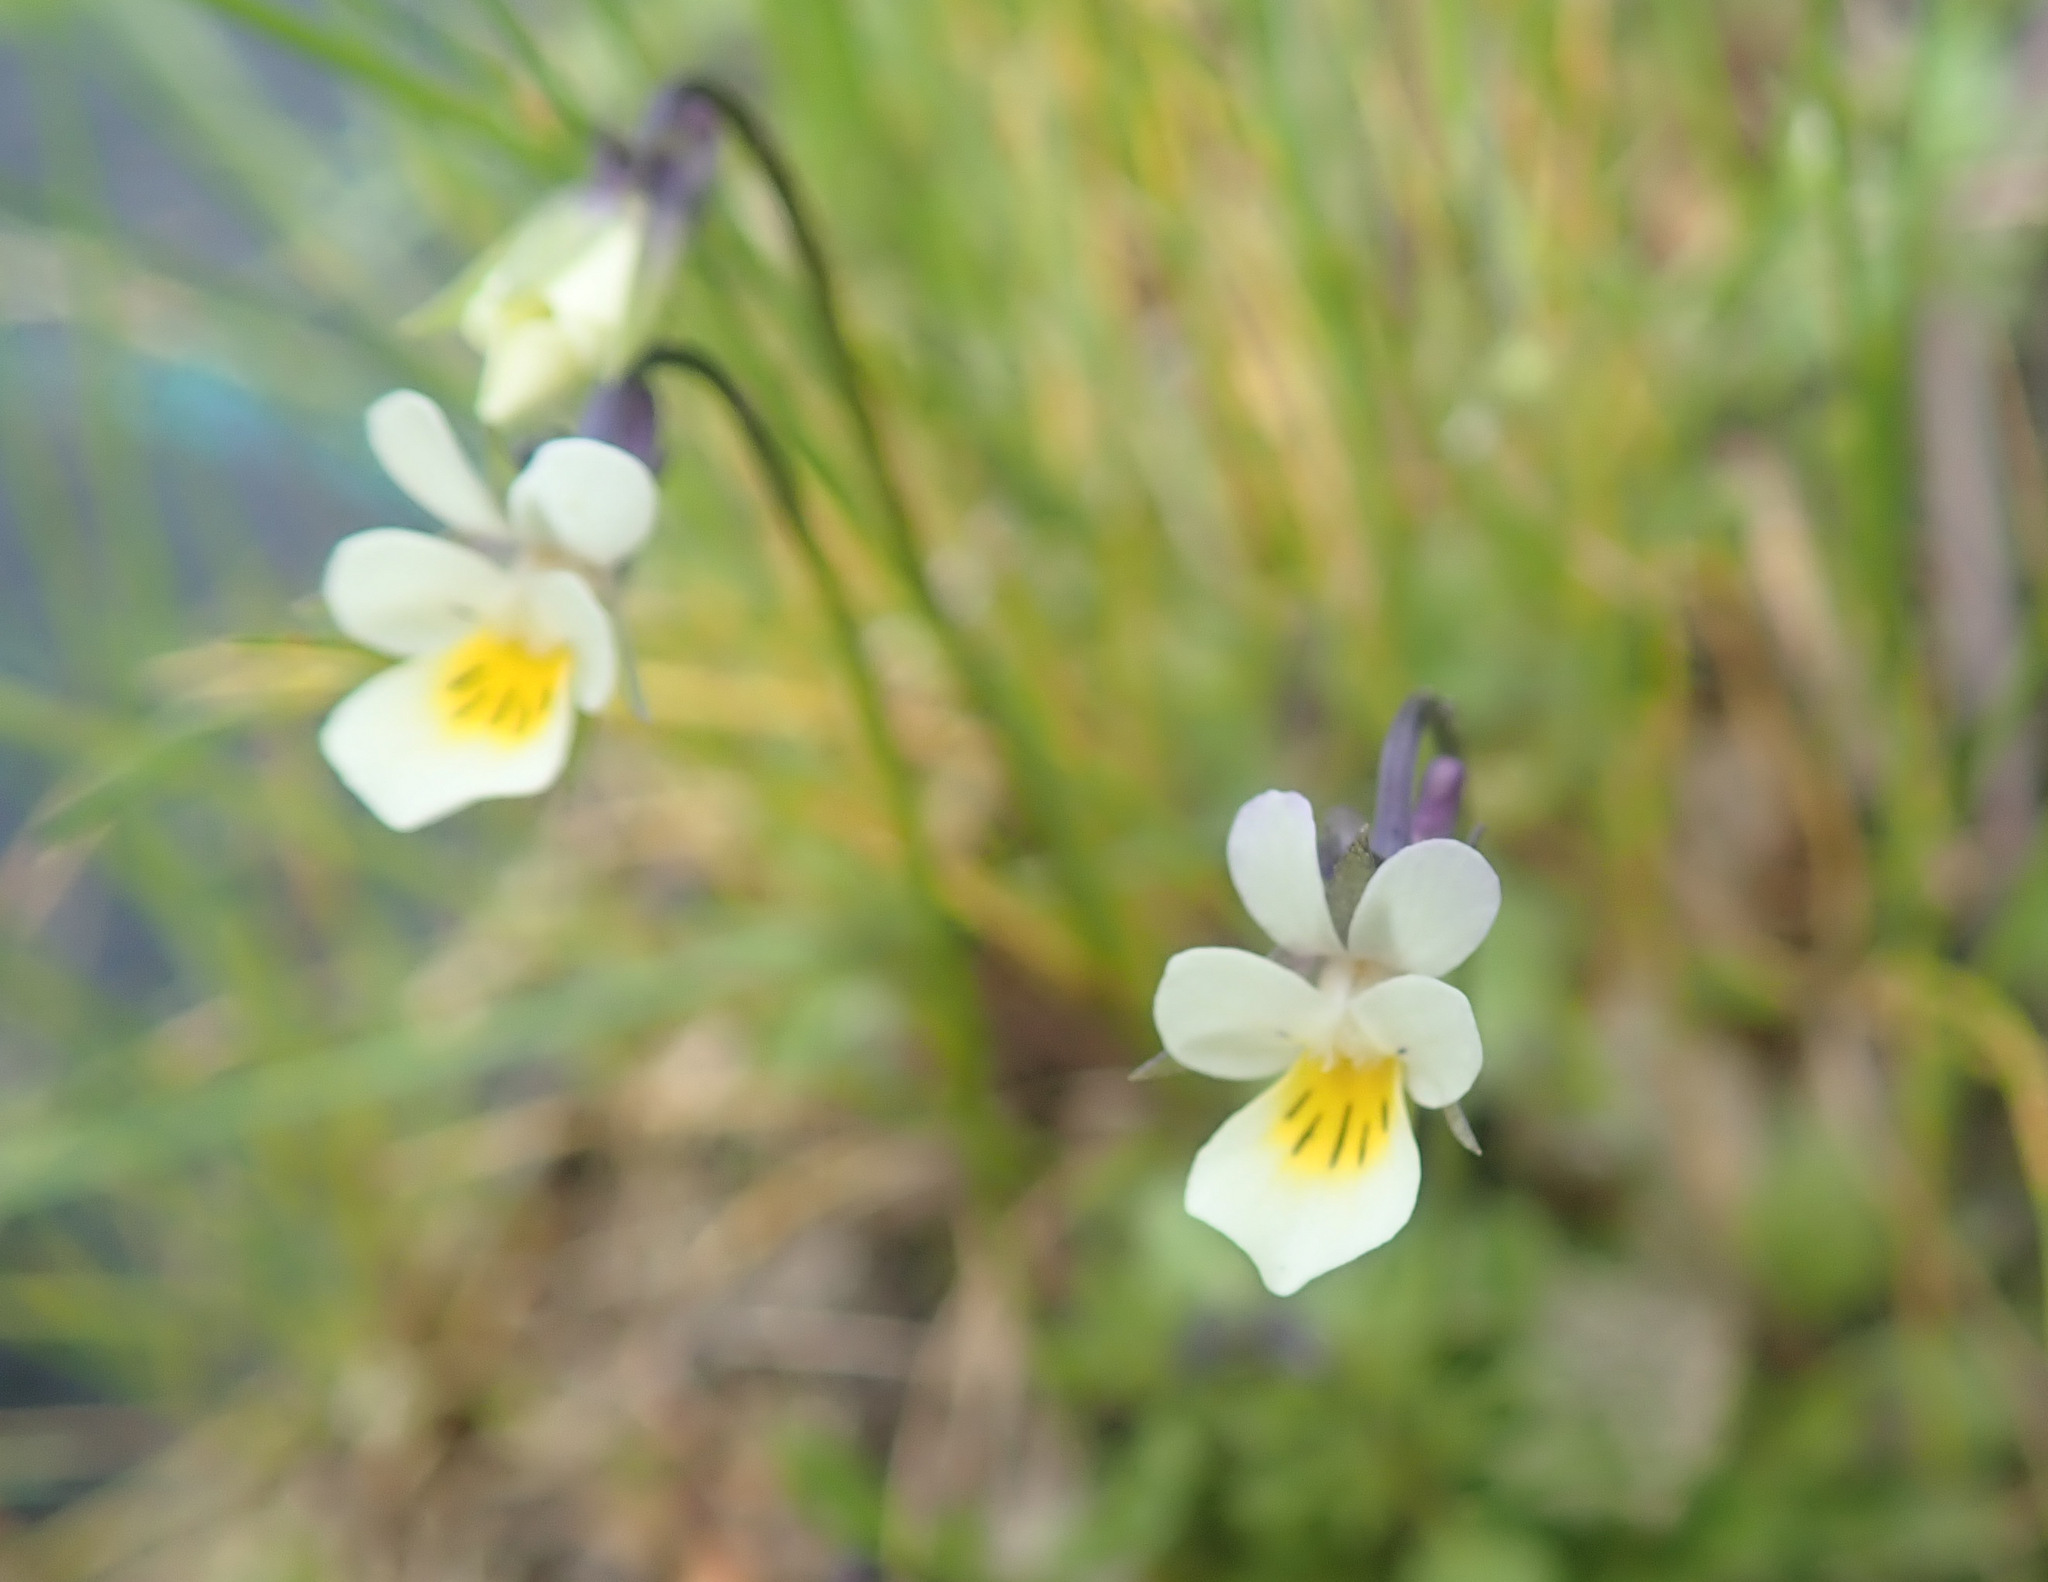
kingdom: Plantae
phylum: Tracheophyta
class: Magnoliopsida
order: Malpighiales
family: Violaceae
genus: Viola
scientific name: Viola arvensis
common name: Field pansy
